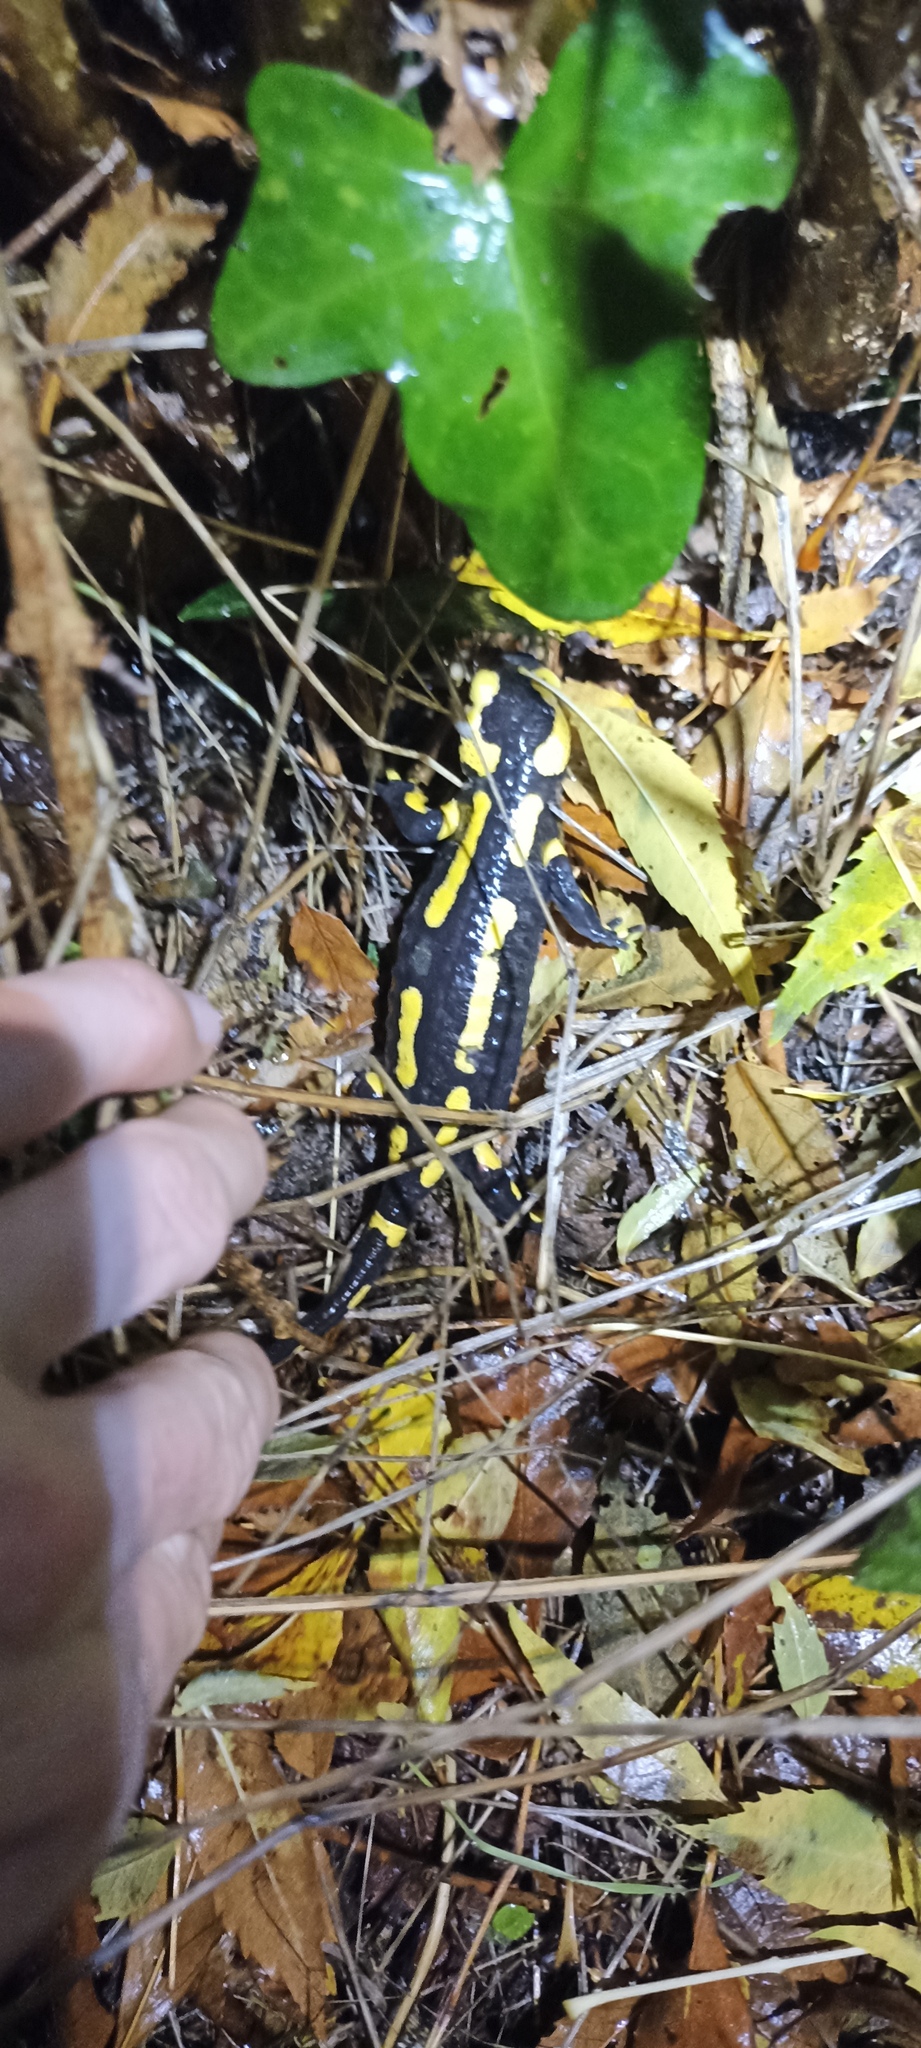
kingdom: Animalia
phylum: Chordata
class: Amphibia
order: Caudata
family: Salamandridae
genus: Salamandra
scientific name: Salamandra salamandra
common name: Fire salamander
